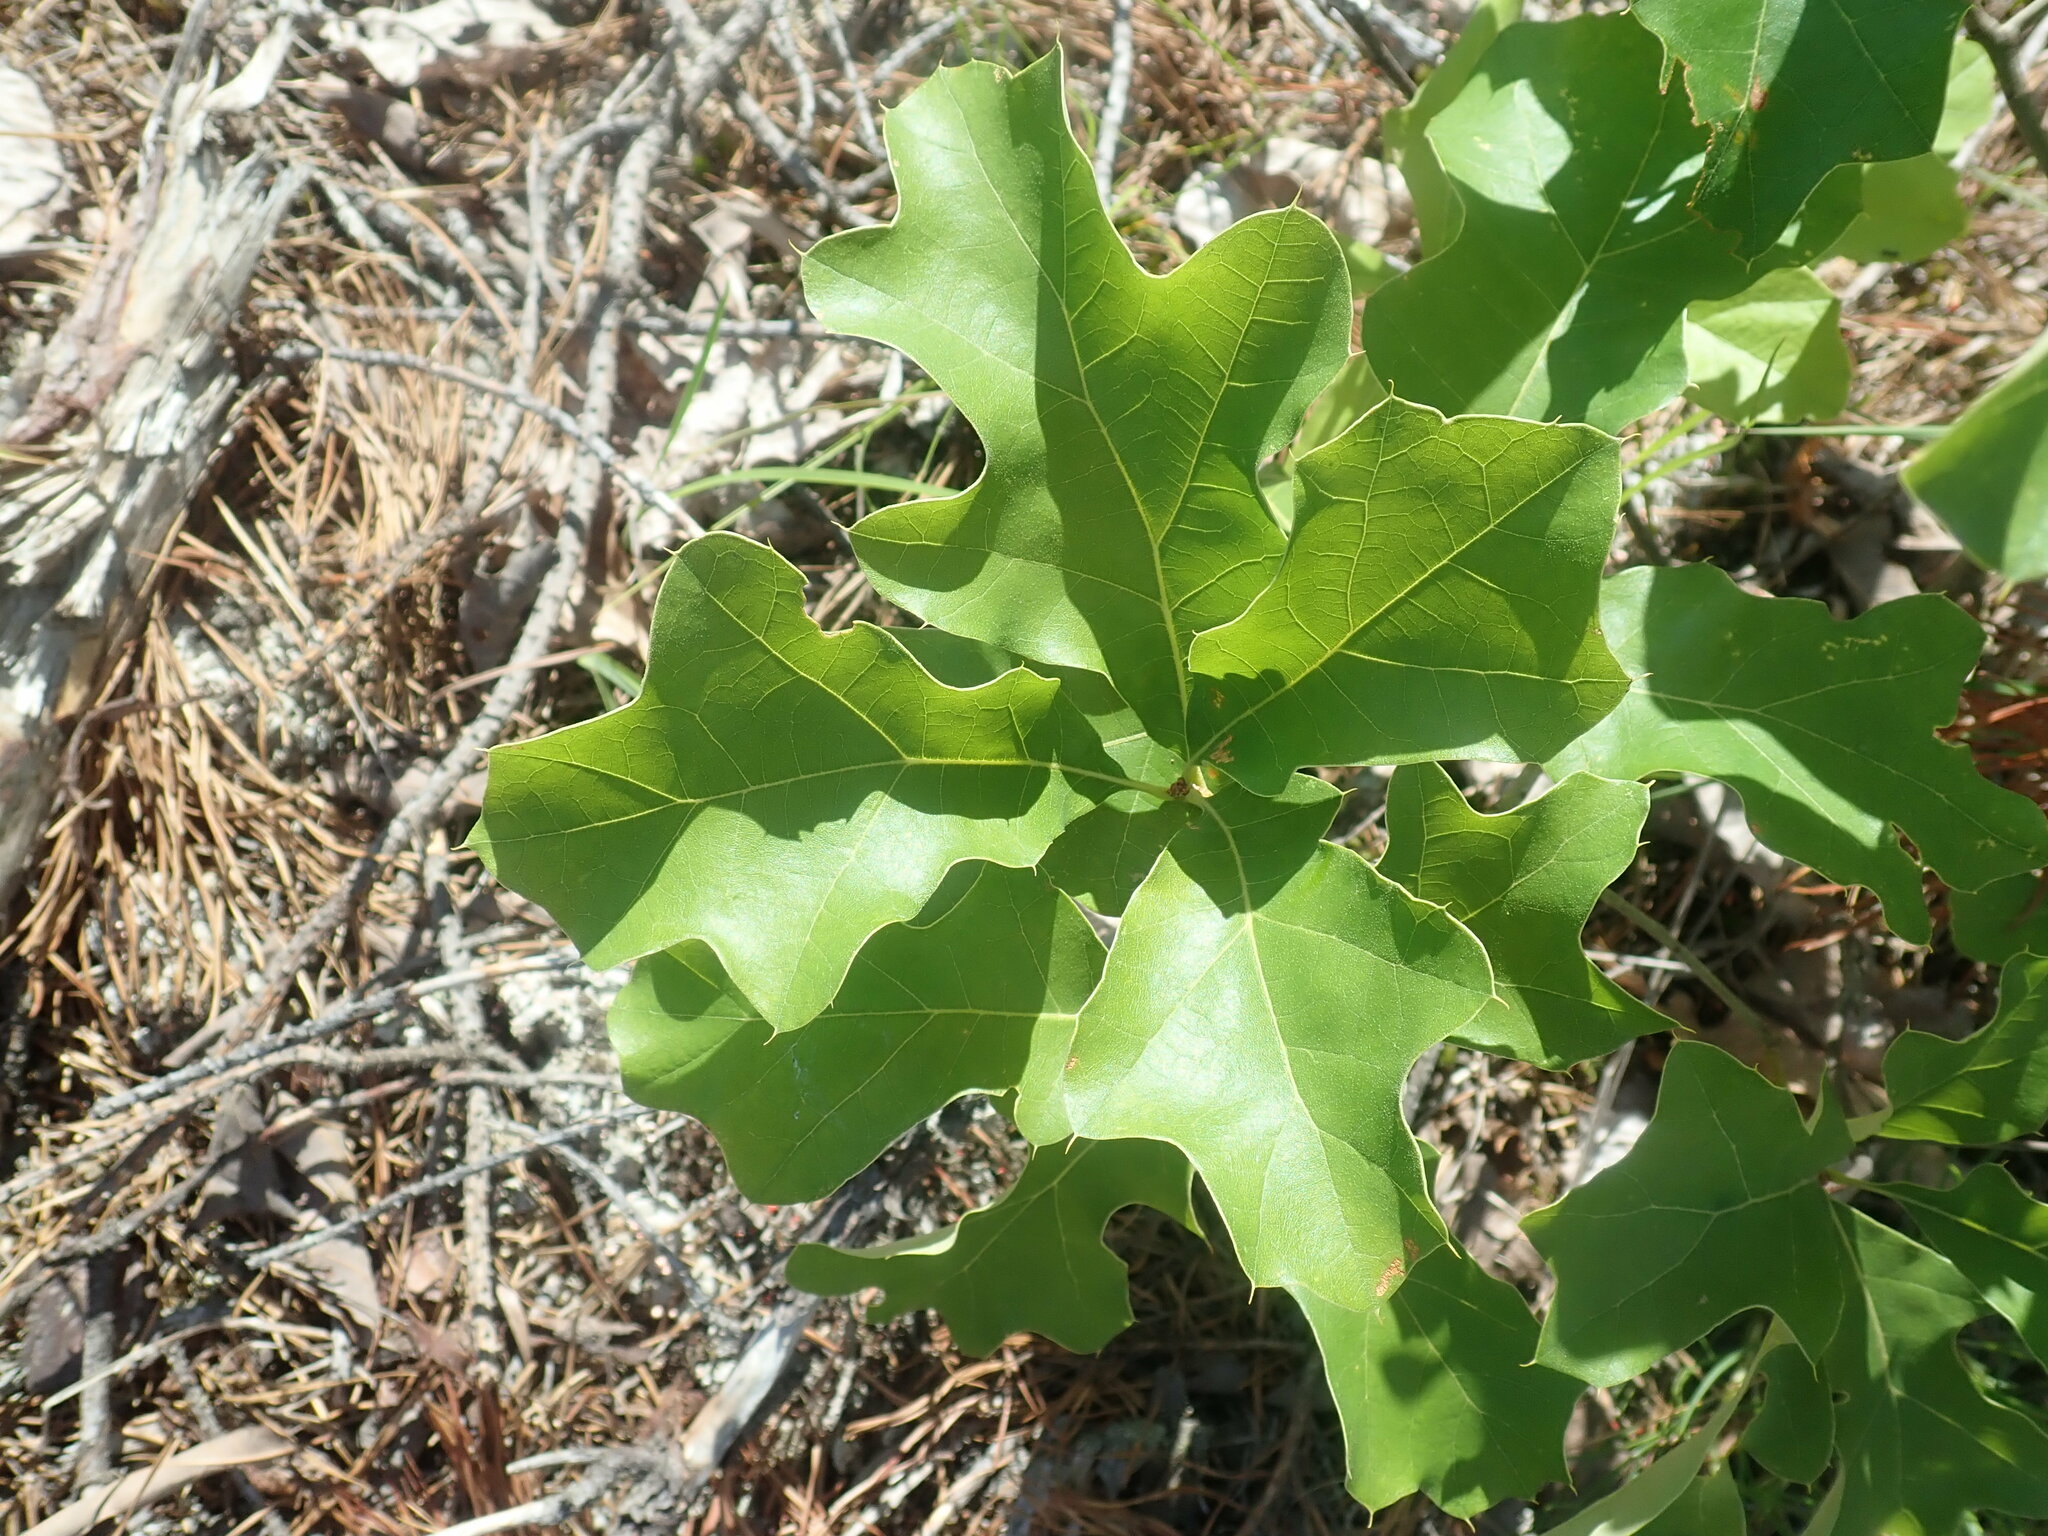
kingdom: Plantae
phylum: Tracheophyta
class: Magnoliopsida
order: Fagales
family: Fagaceae
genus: Quercus
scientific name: Quercus ilicifolia
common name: Bear oak
